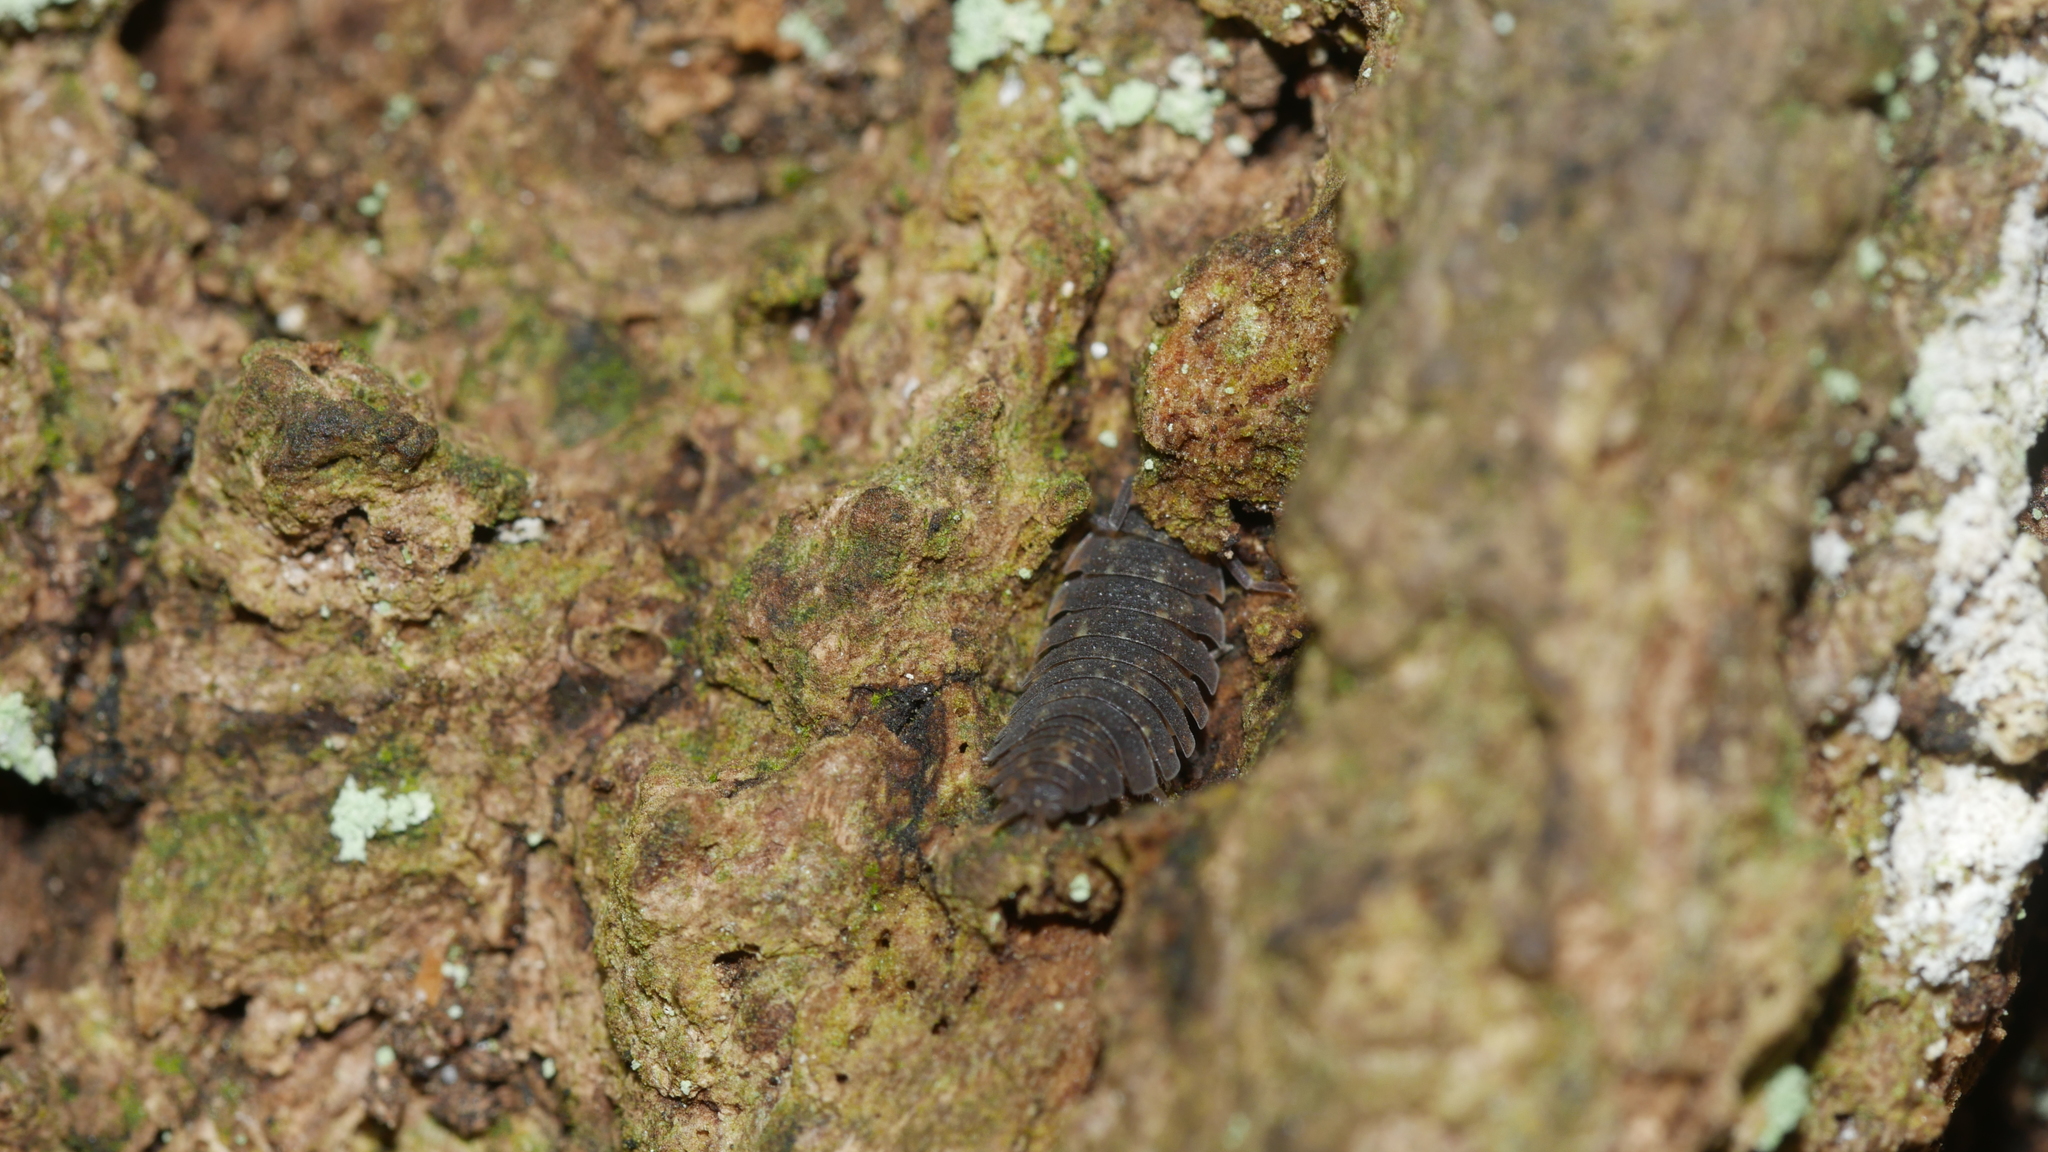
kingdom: Animalia
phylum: Arthropoda
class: Malacostraca
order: Isopoda
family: Porcellionidae
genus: Porcellio
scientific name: Porcellio scaber
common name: Common rough woodlouse
